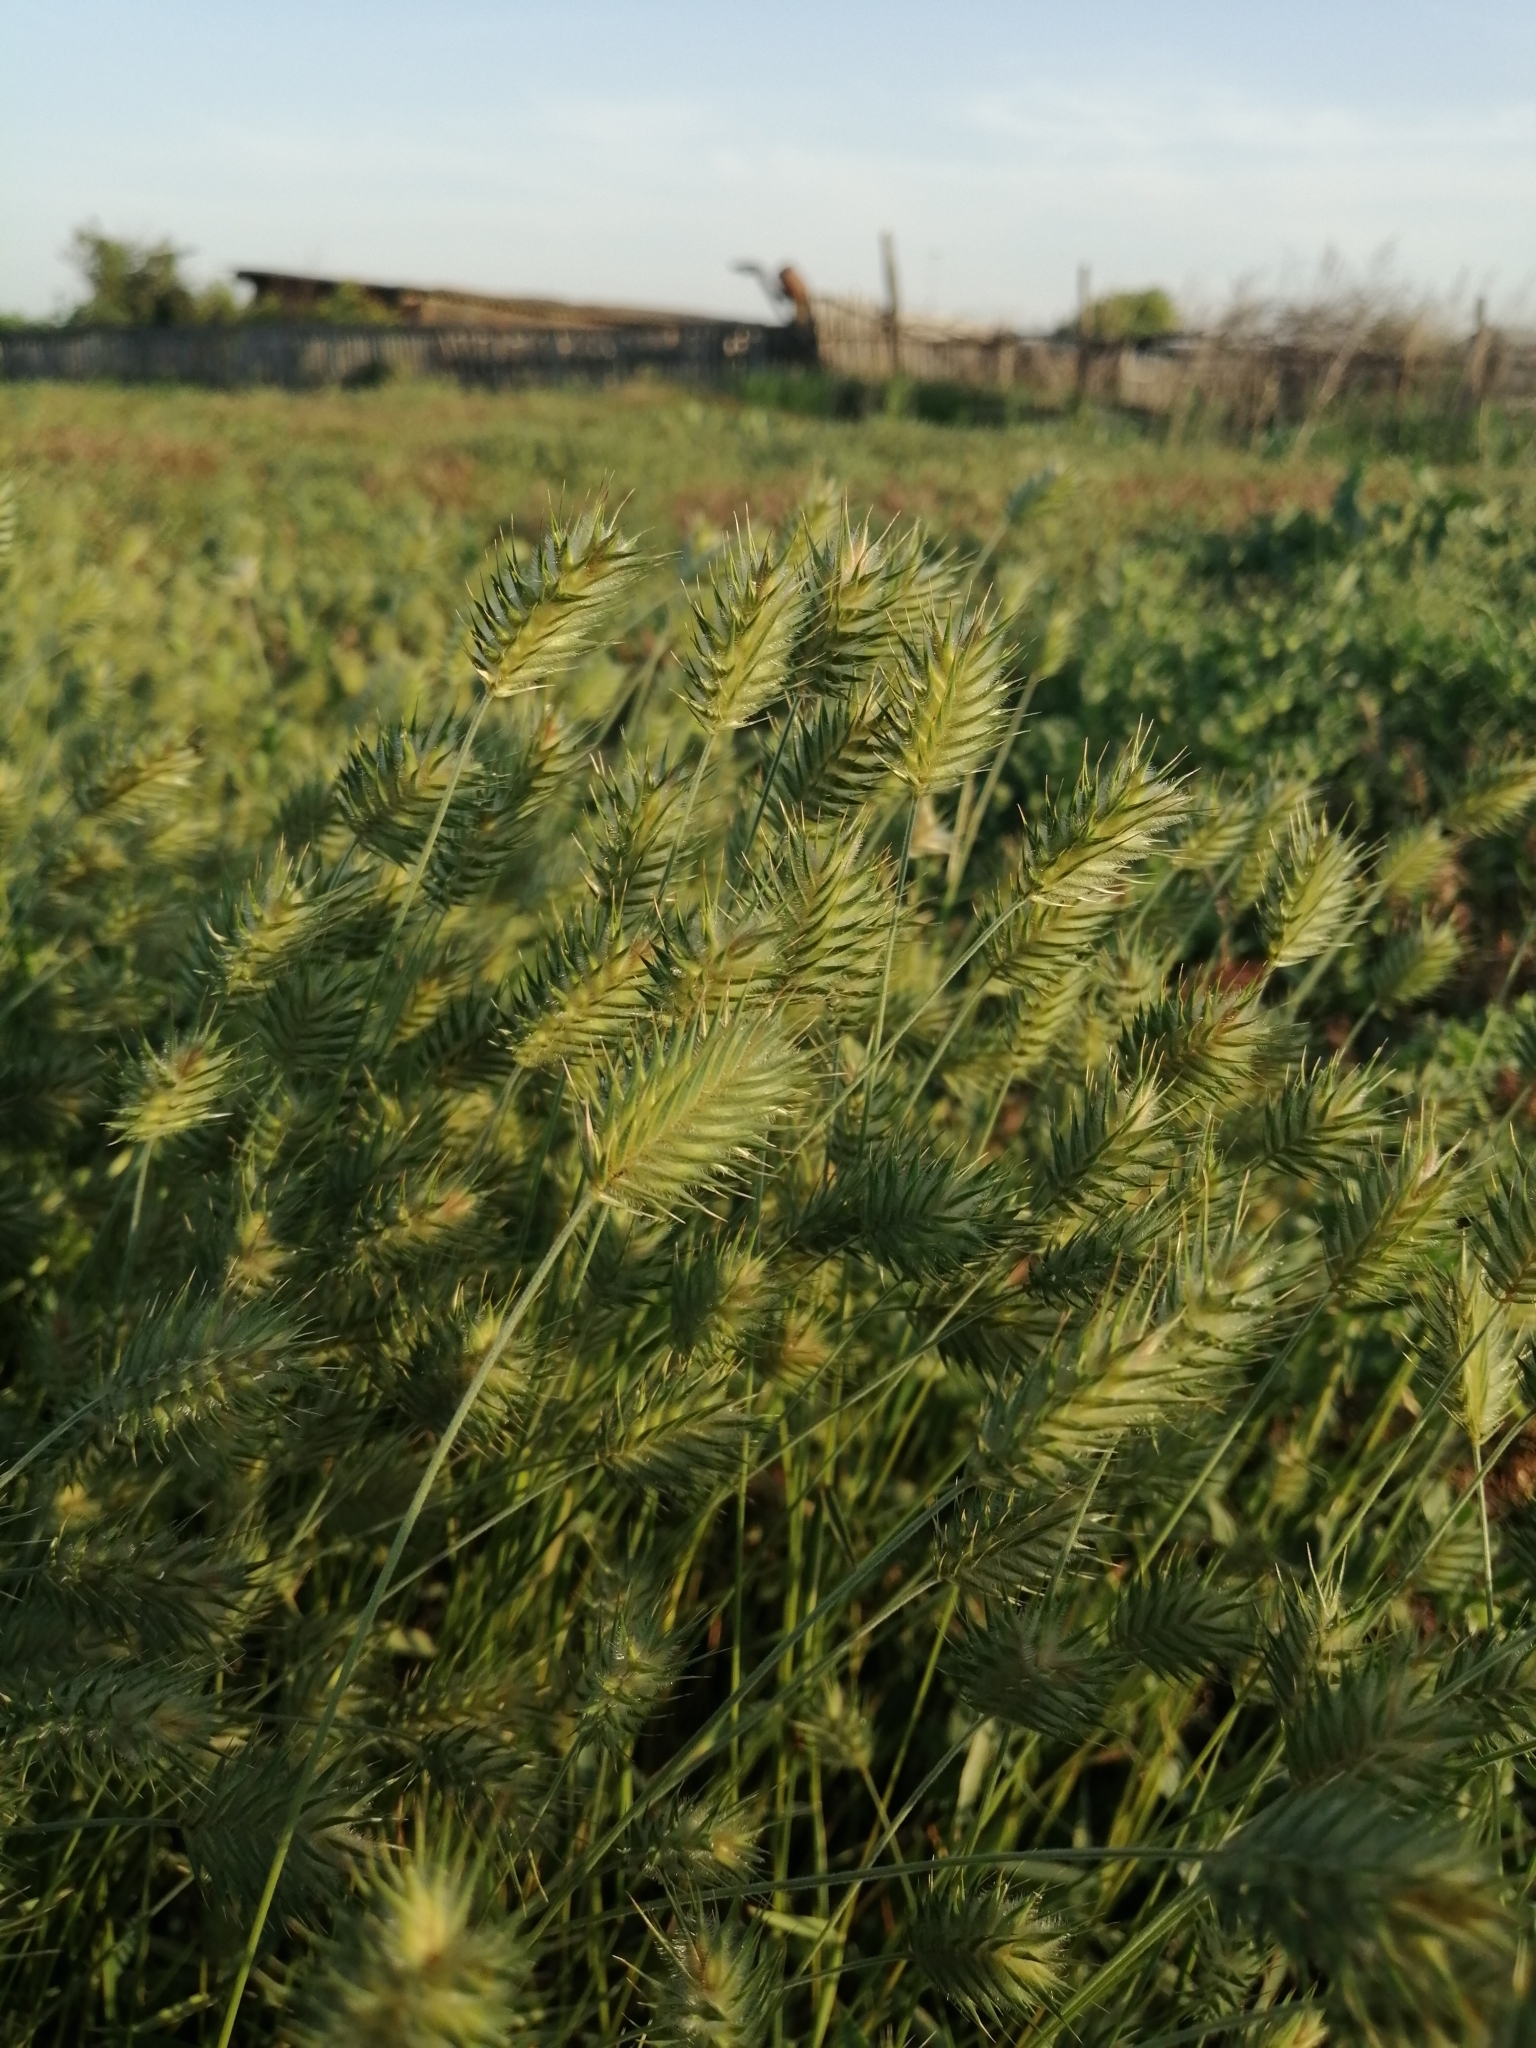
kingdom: Plantae
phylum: Tracheophyta
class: Liliopsida
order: Poales
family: Poaceae
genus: Eremopyrum
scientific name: Eremopyrum orientale
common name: Oriental false wheatgrass
